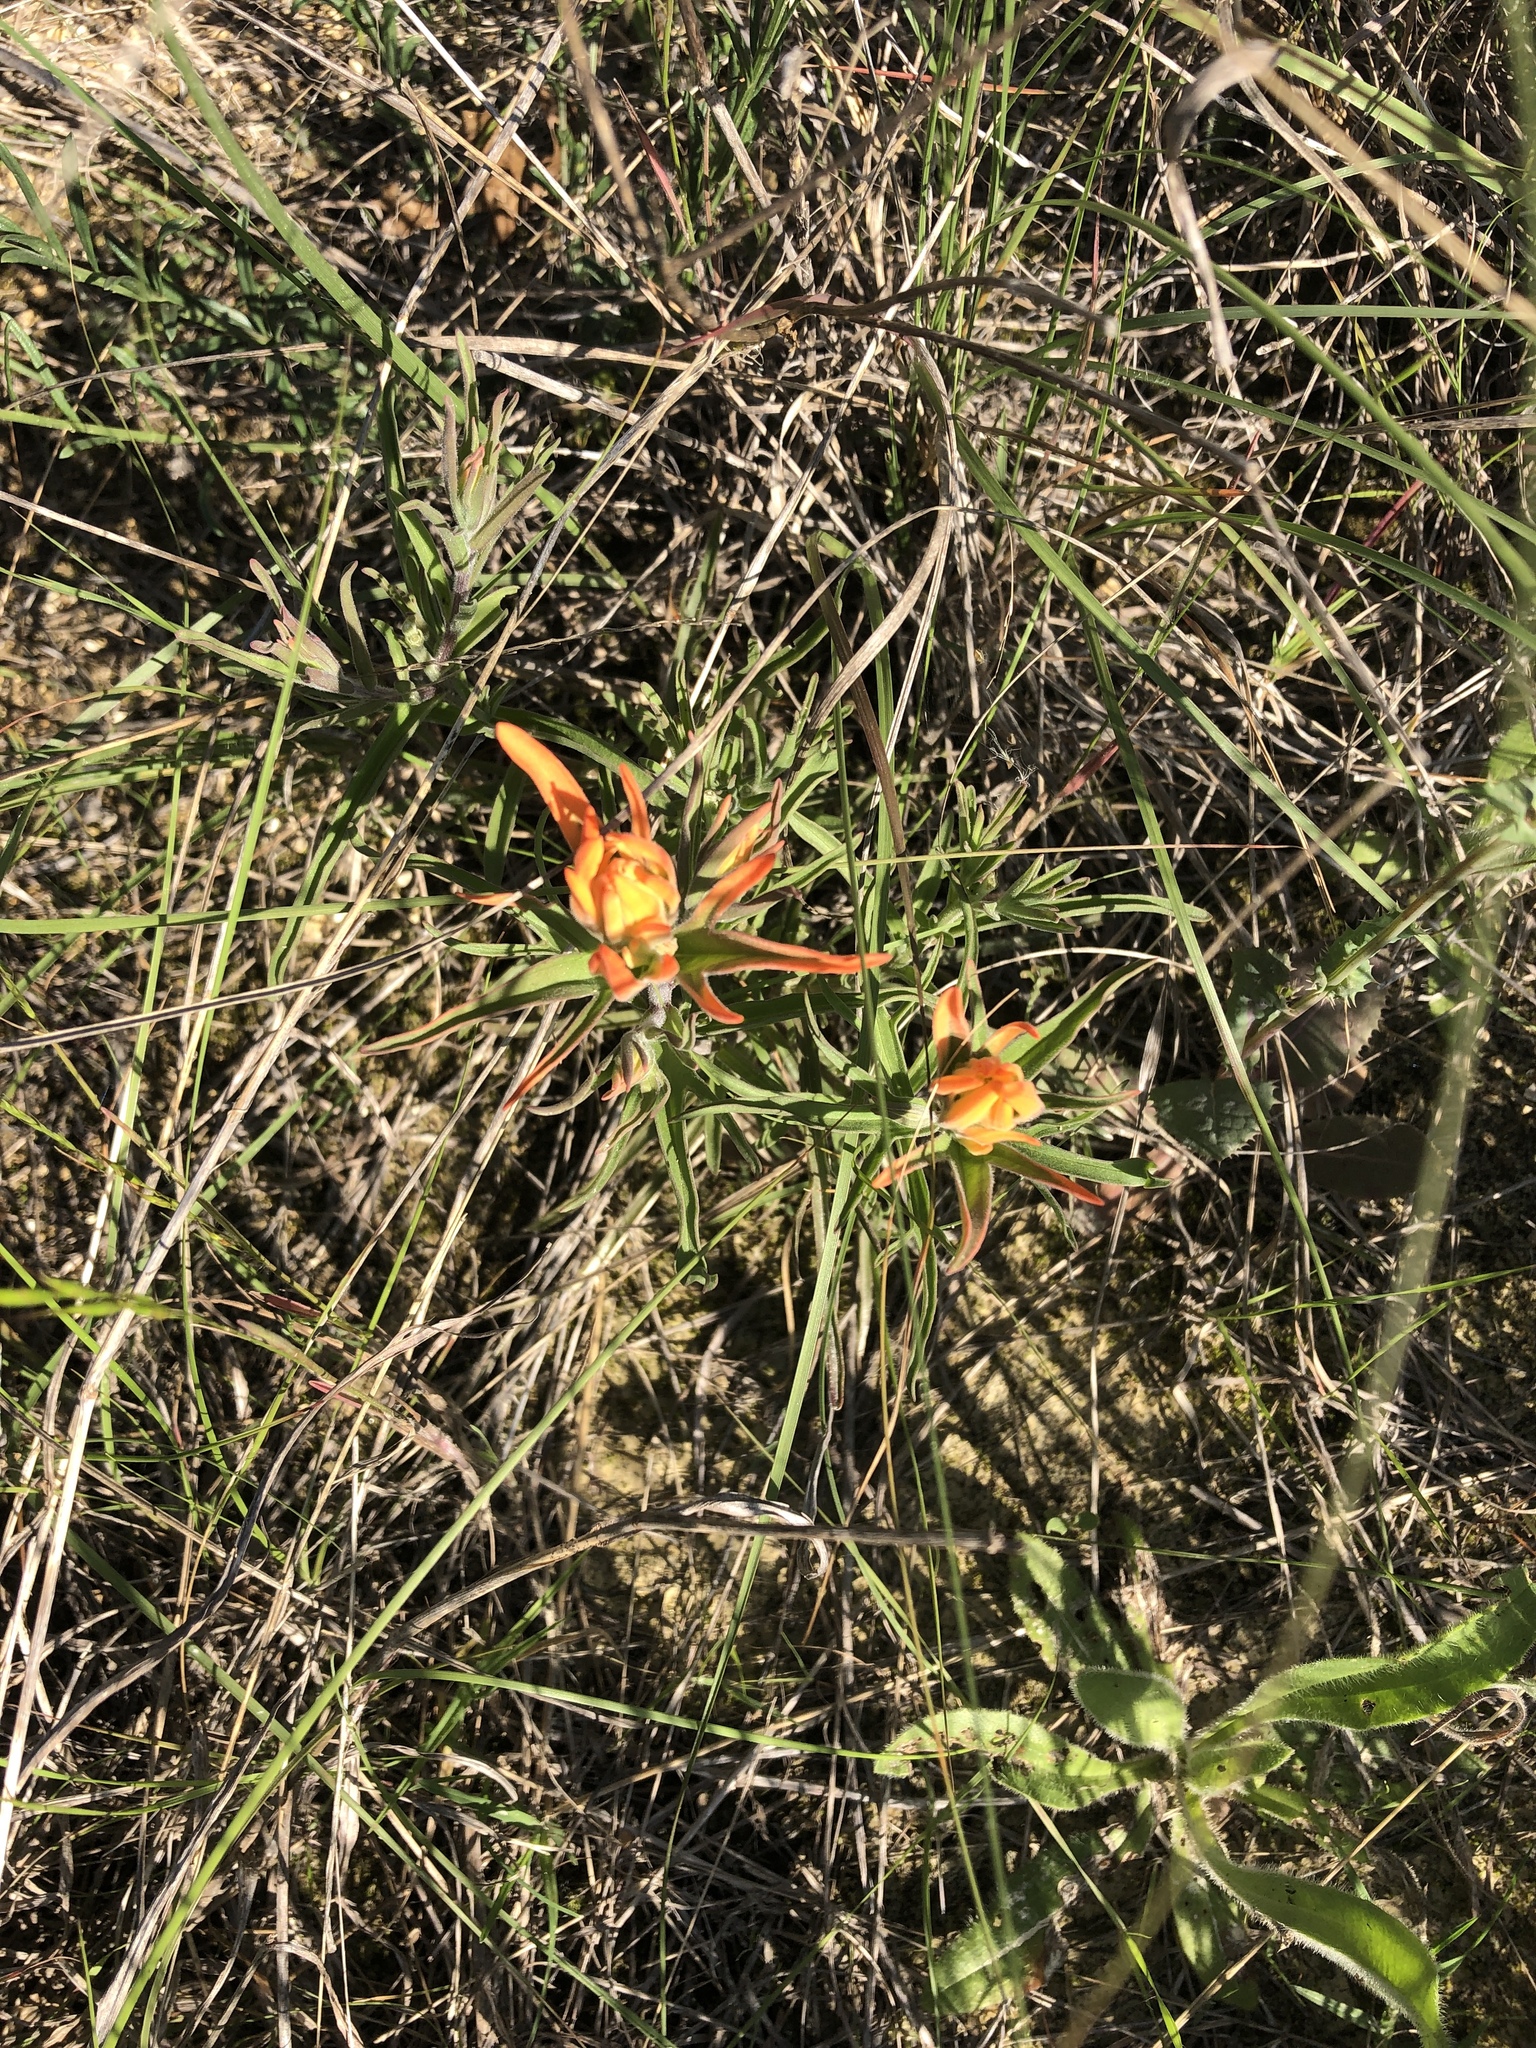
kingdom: Plantae
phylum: Tracheophyta
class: Magnoliopsida
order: Lamiales
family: Orobanchaceae
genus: Castilleja
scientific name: Castilleja lindheimeri
